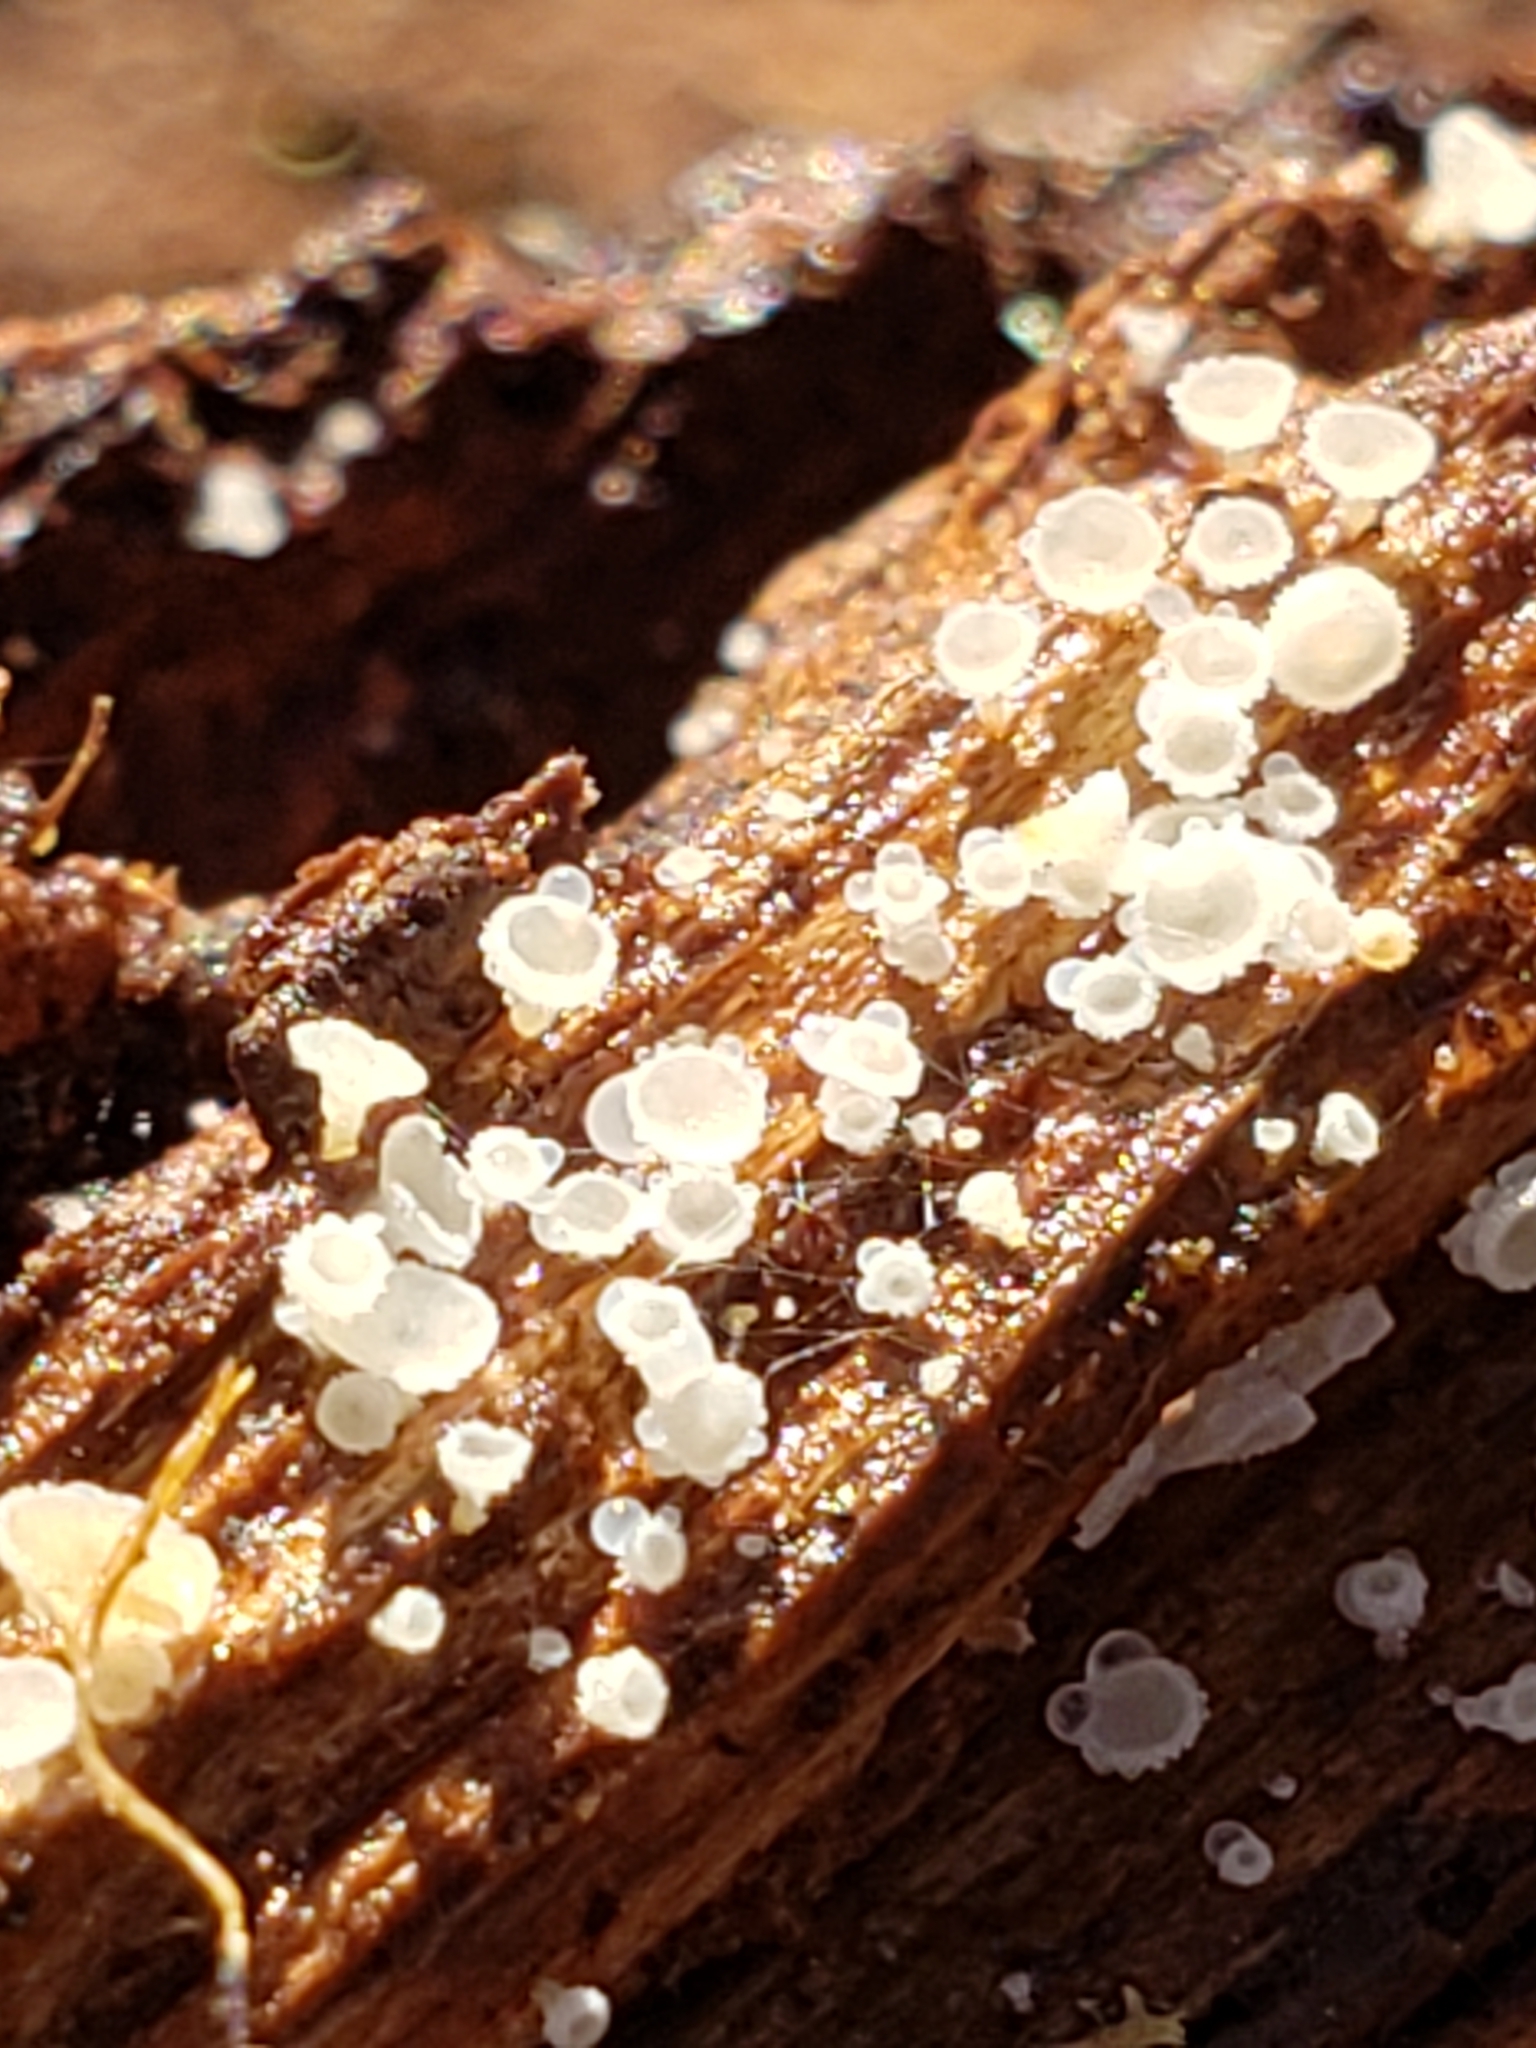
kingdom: Fungi
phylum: Ascomycota
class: Leotiomycetes
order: Helotiales
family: Lachnaceae
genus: Lachnum
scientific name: Lachnum virgineum
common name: Snowy disco
